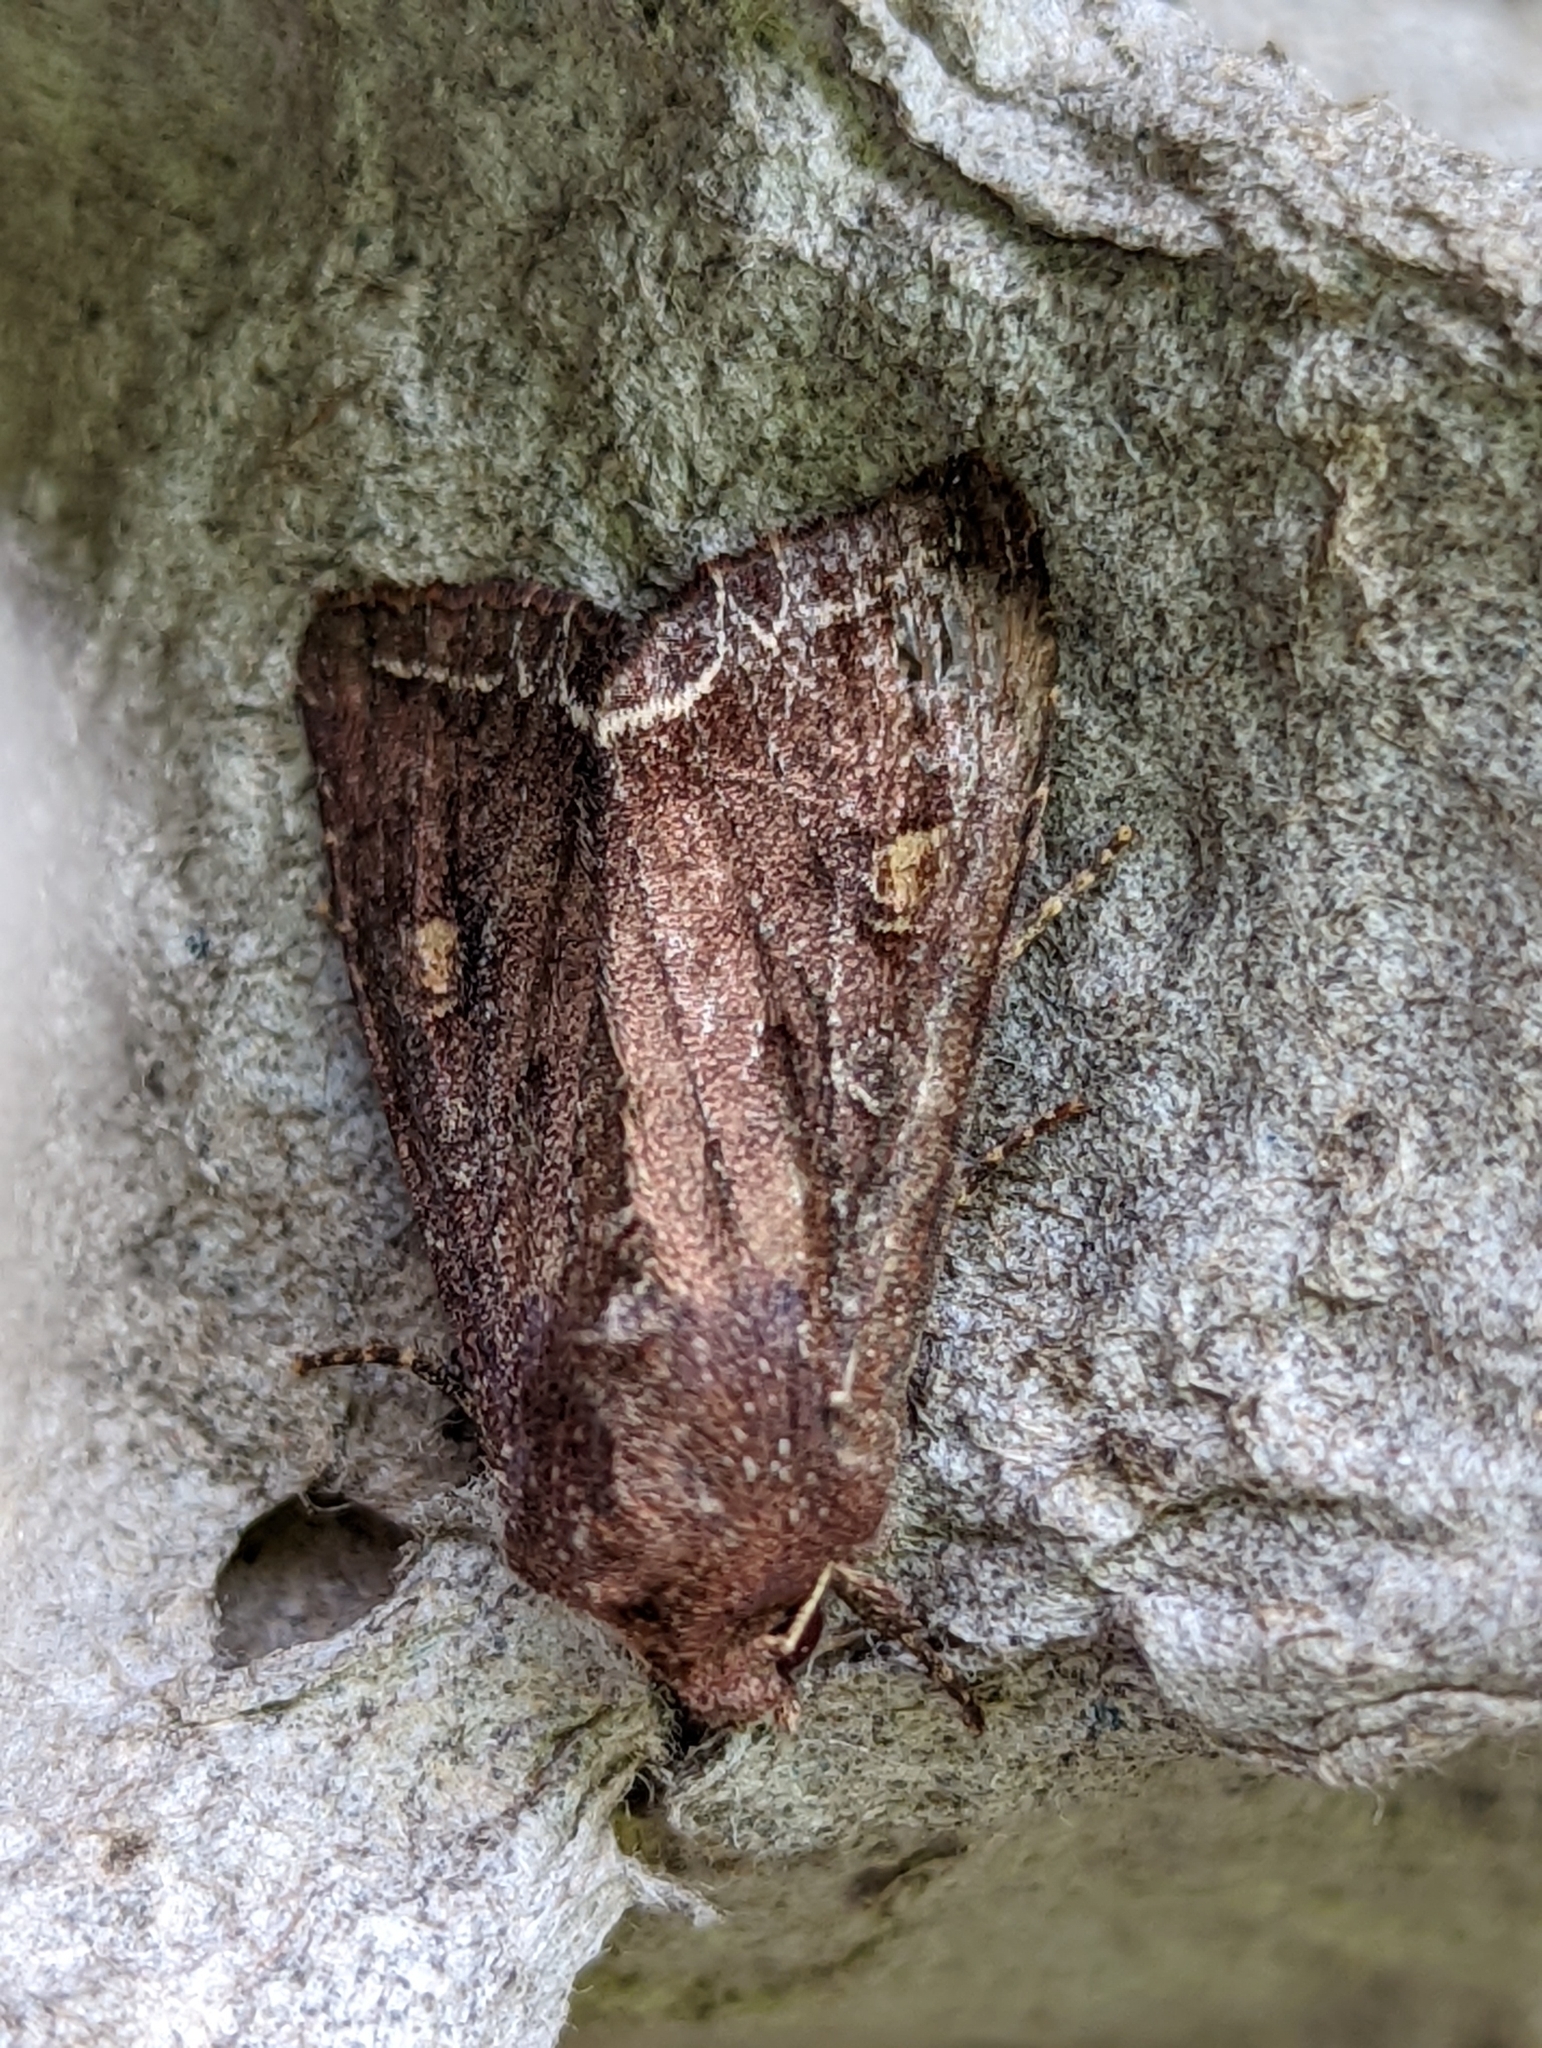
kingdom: Animalia
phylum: Arthropoda
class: Insecta
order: Lepidoptera
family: Noctuidae
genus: Lacanobia
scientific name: Lacanobia oleracea
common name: Bright-line brown-eye
